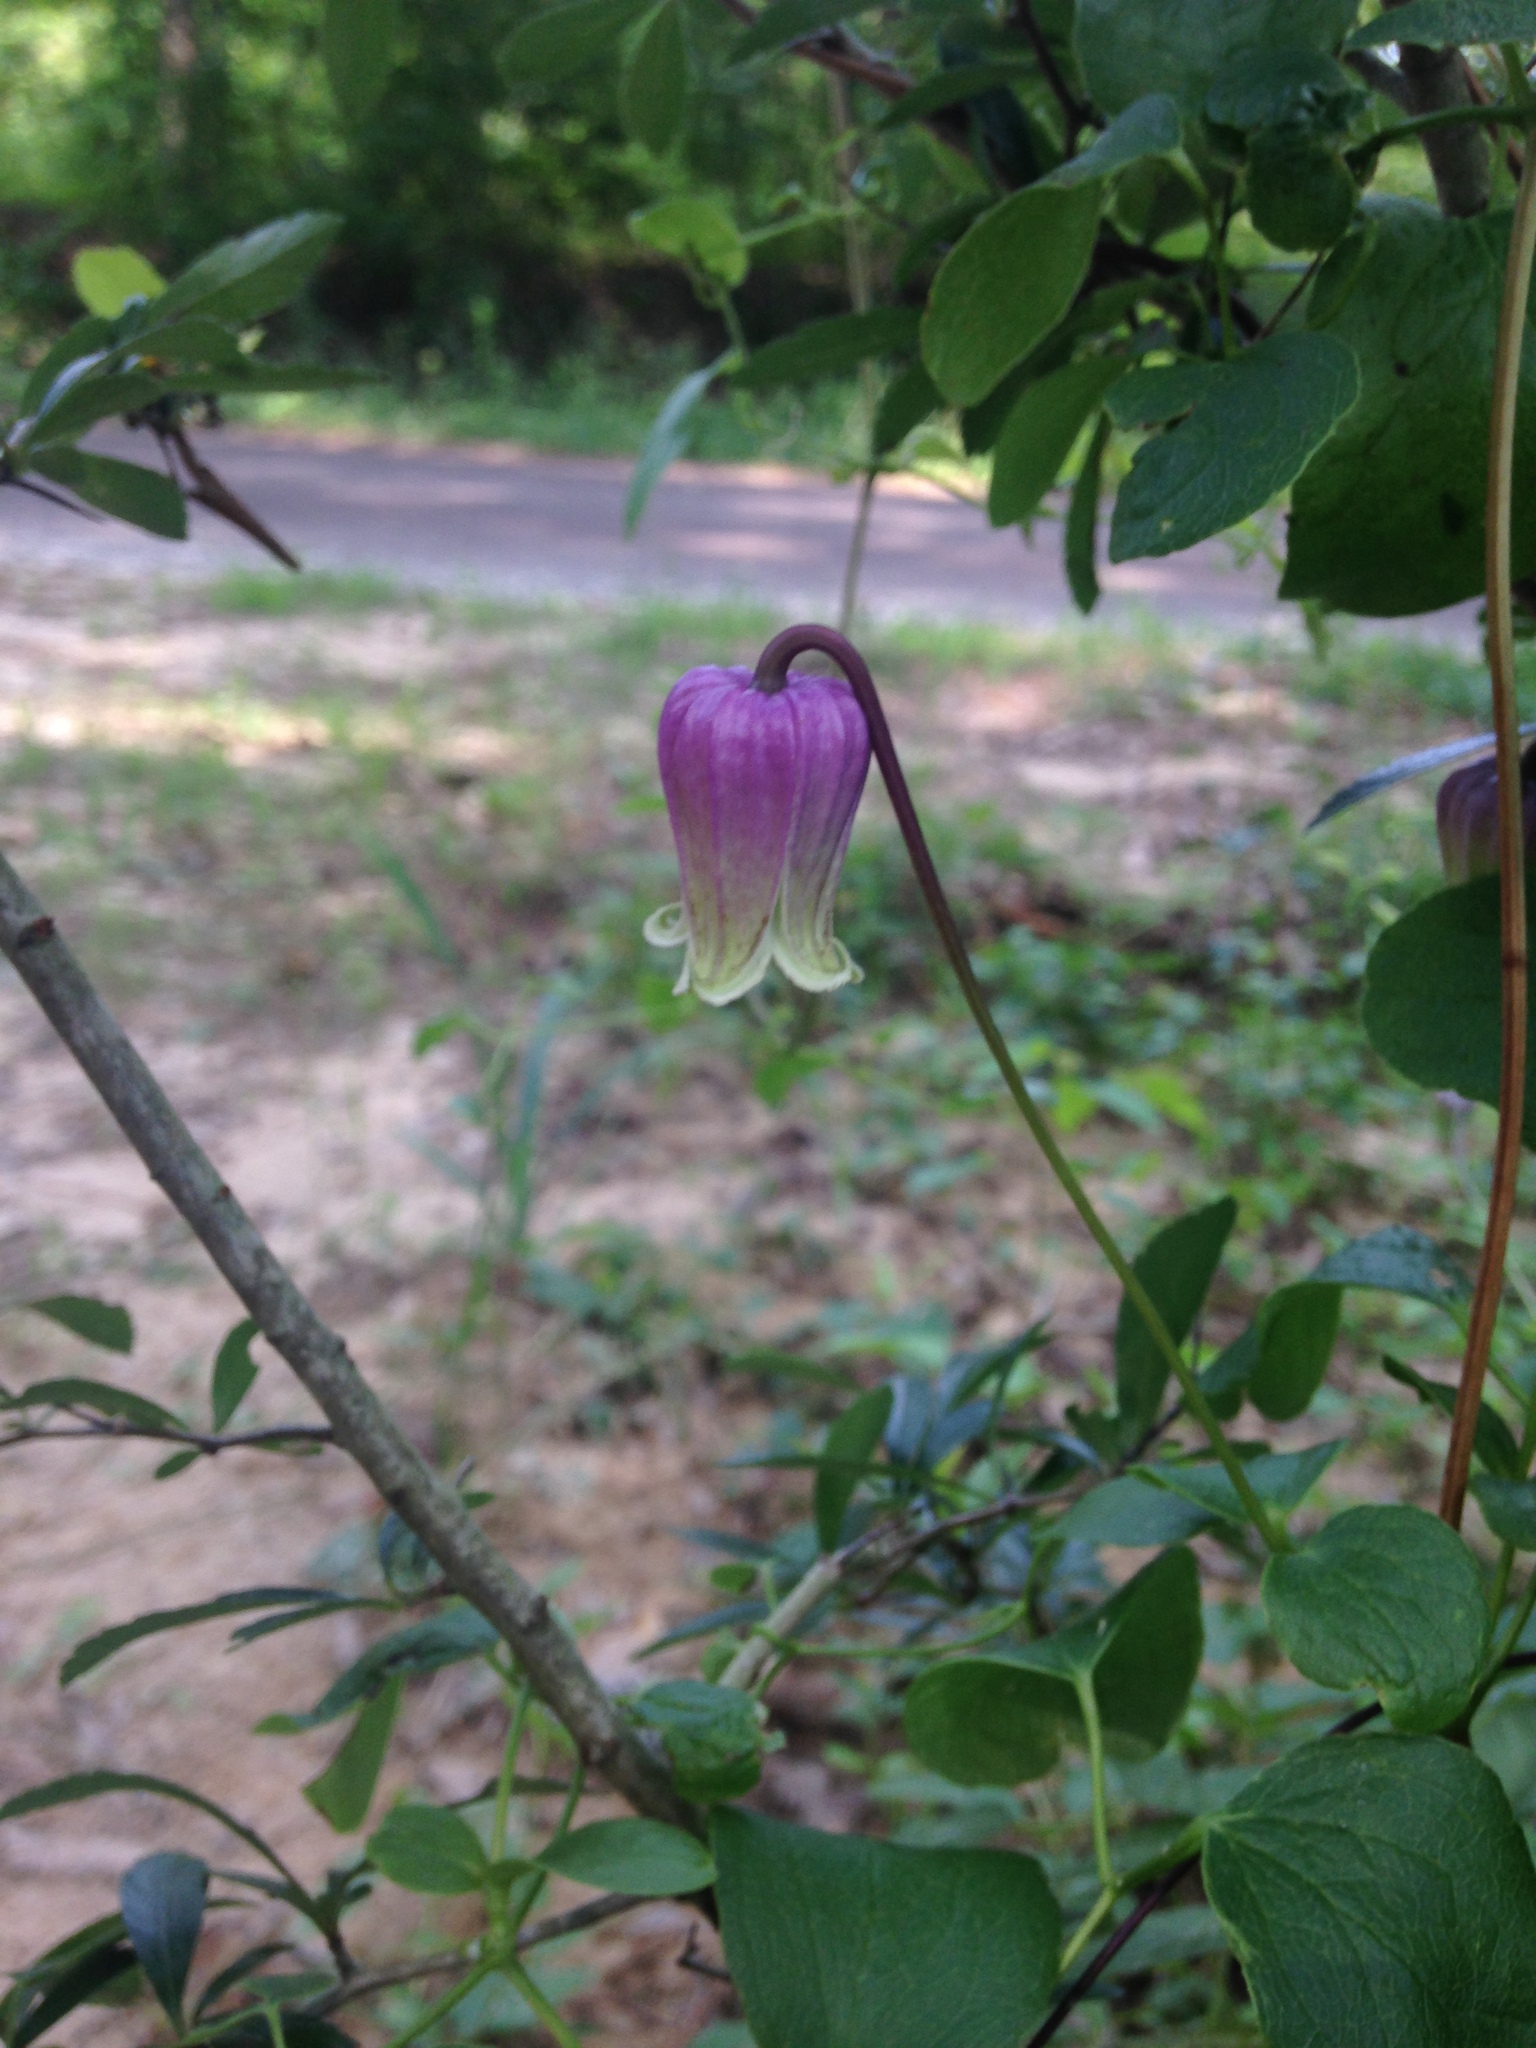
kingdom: Plantae
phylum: Tracheophyta
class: Magnoliopsida
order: Ranunculales
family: Ranunculaceae
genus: Clematis
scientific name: Clematis arenicola
